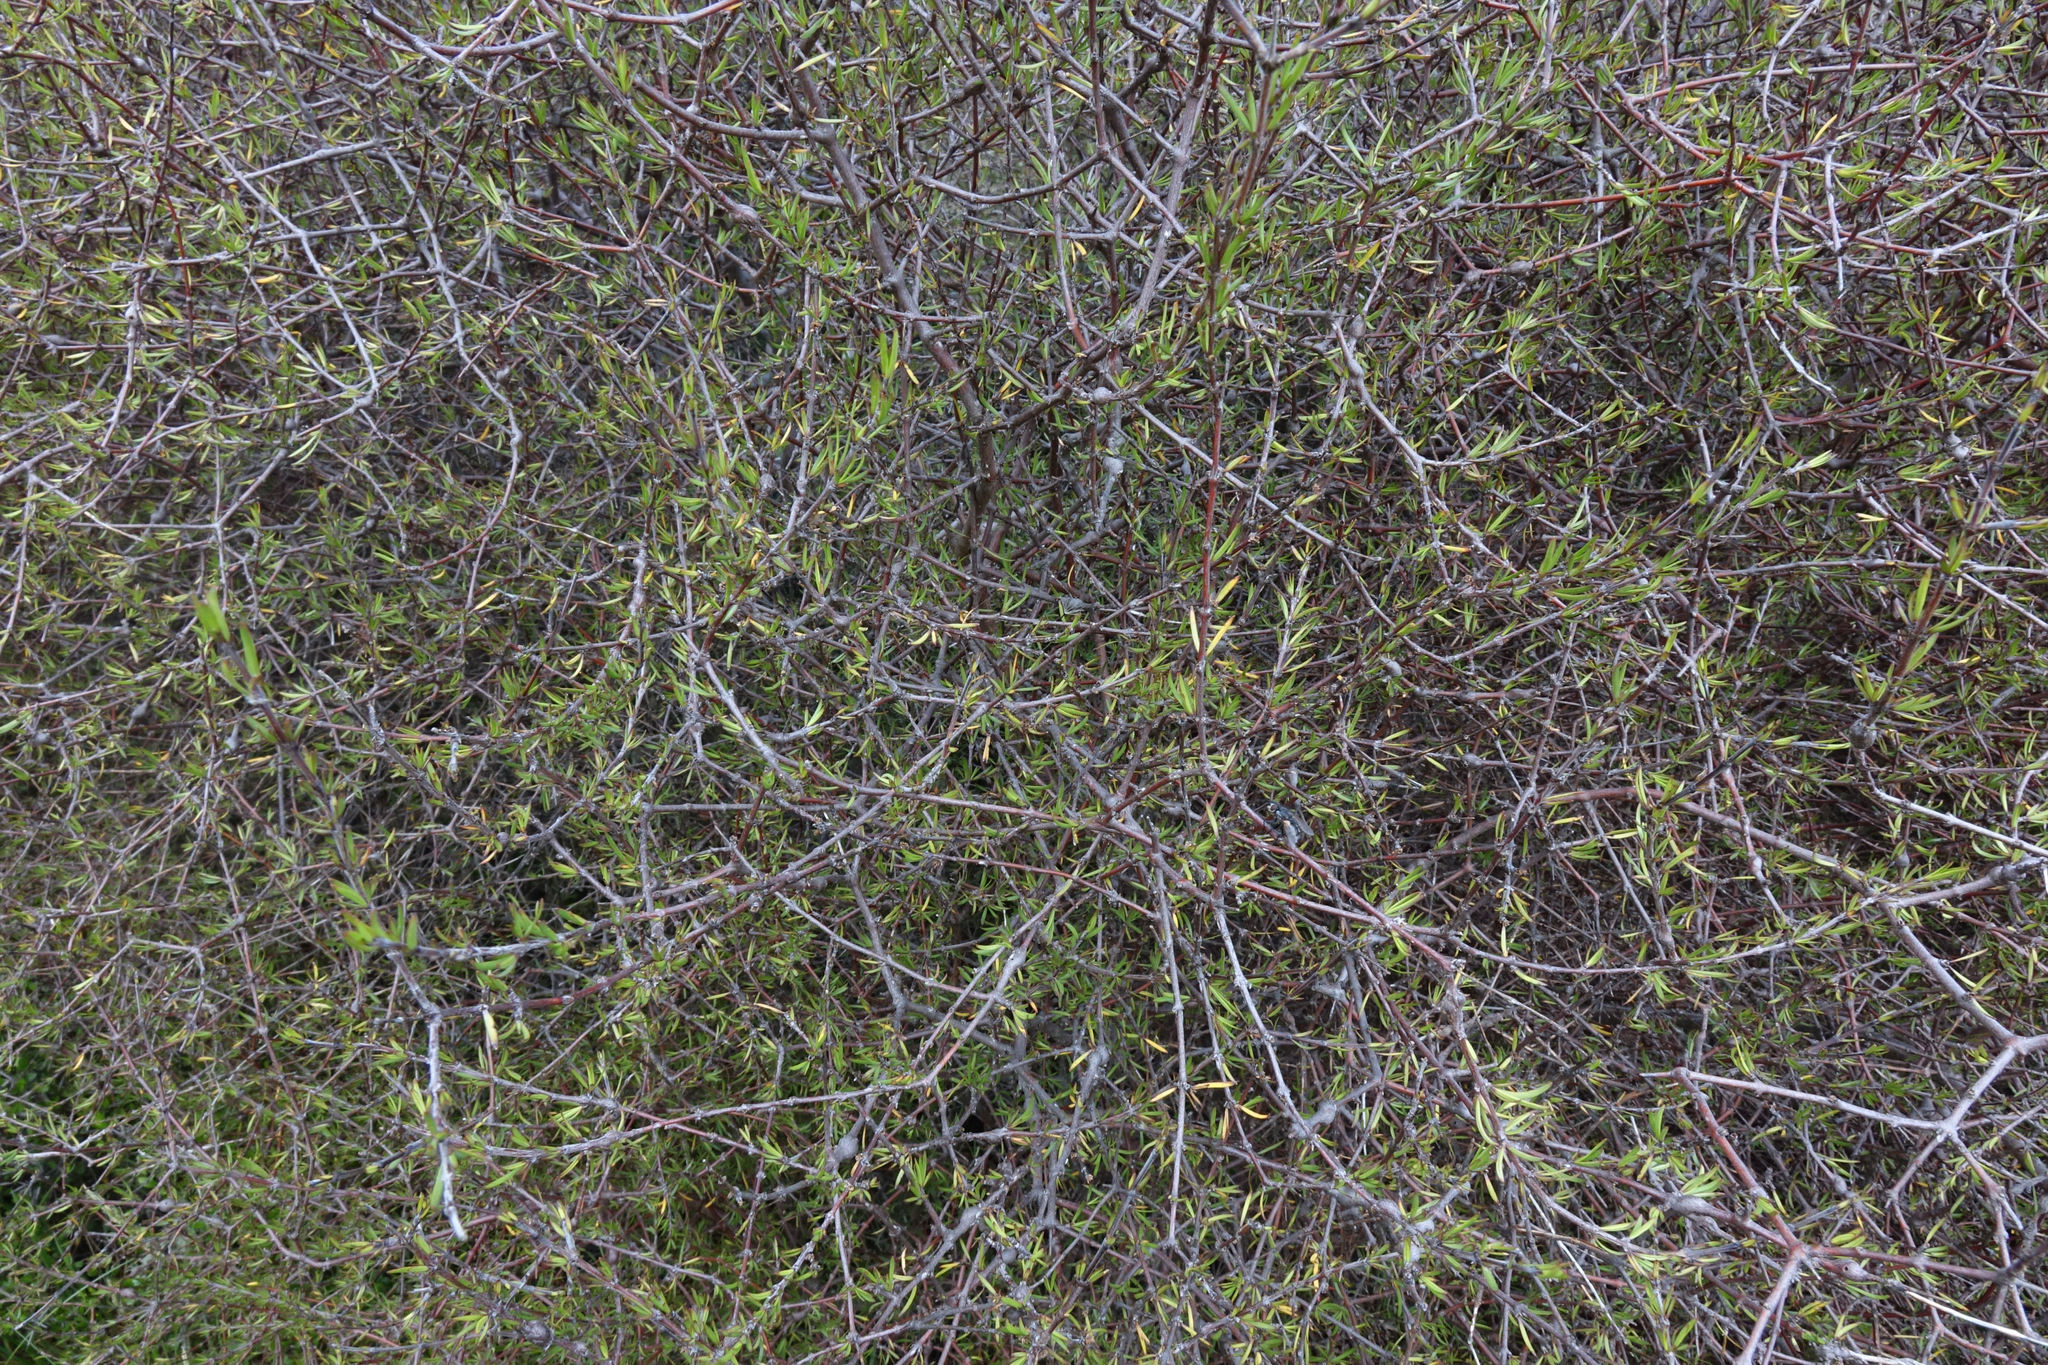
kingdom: Plantae
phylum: Tracheophyta
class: Magnoliopsida
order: Gentianales
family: Rubiaceae
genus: Coprosma
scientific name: Coprosma intertexta
